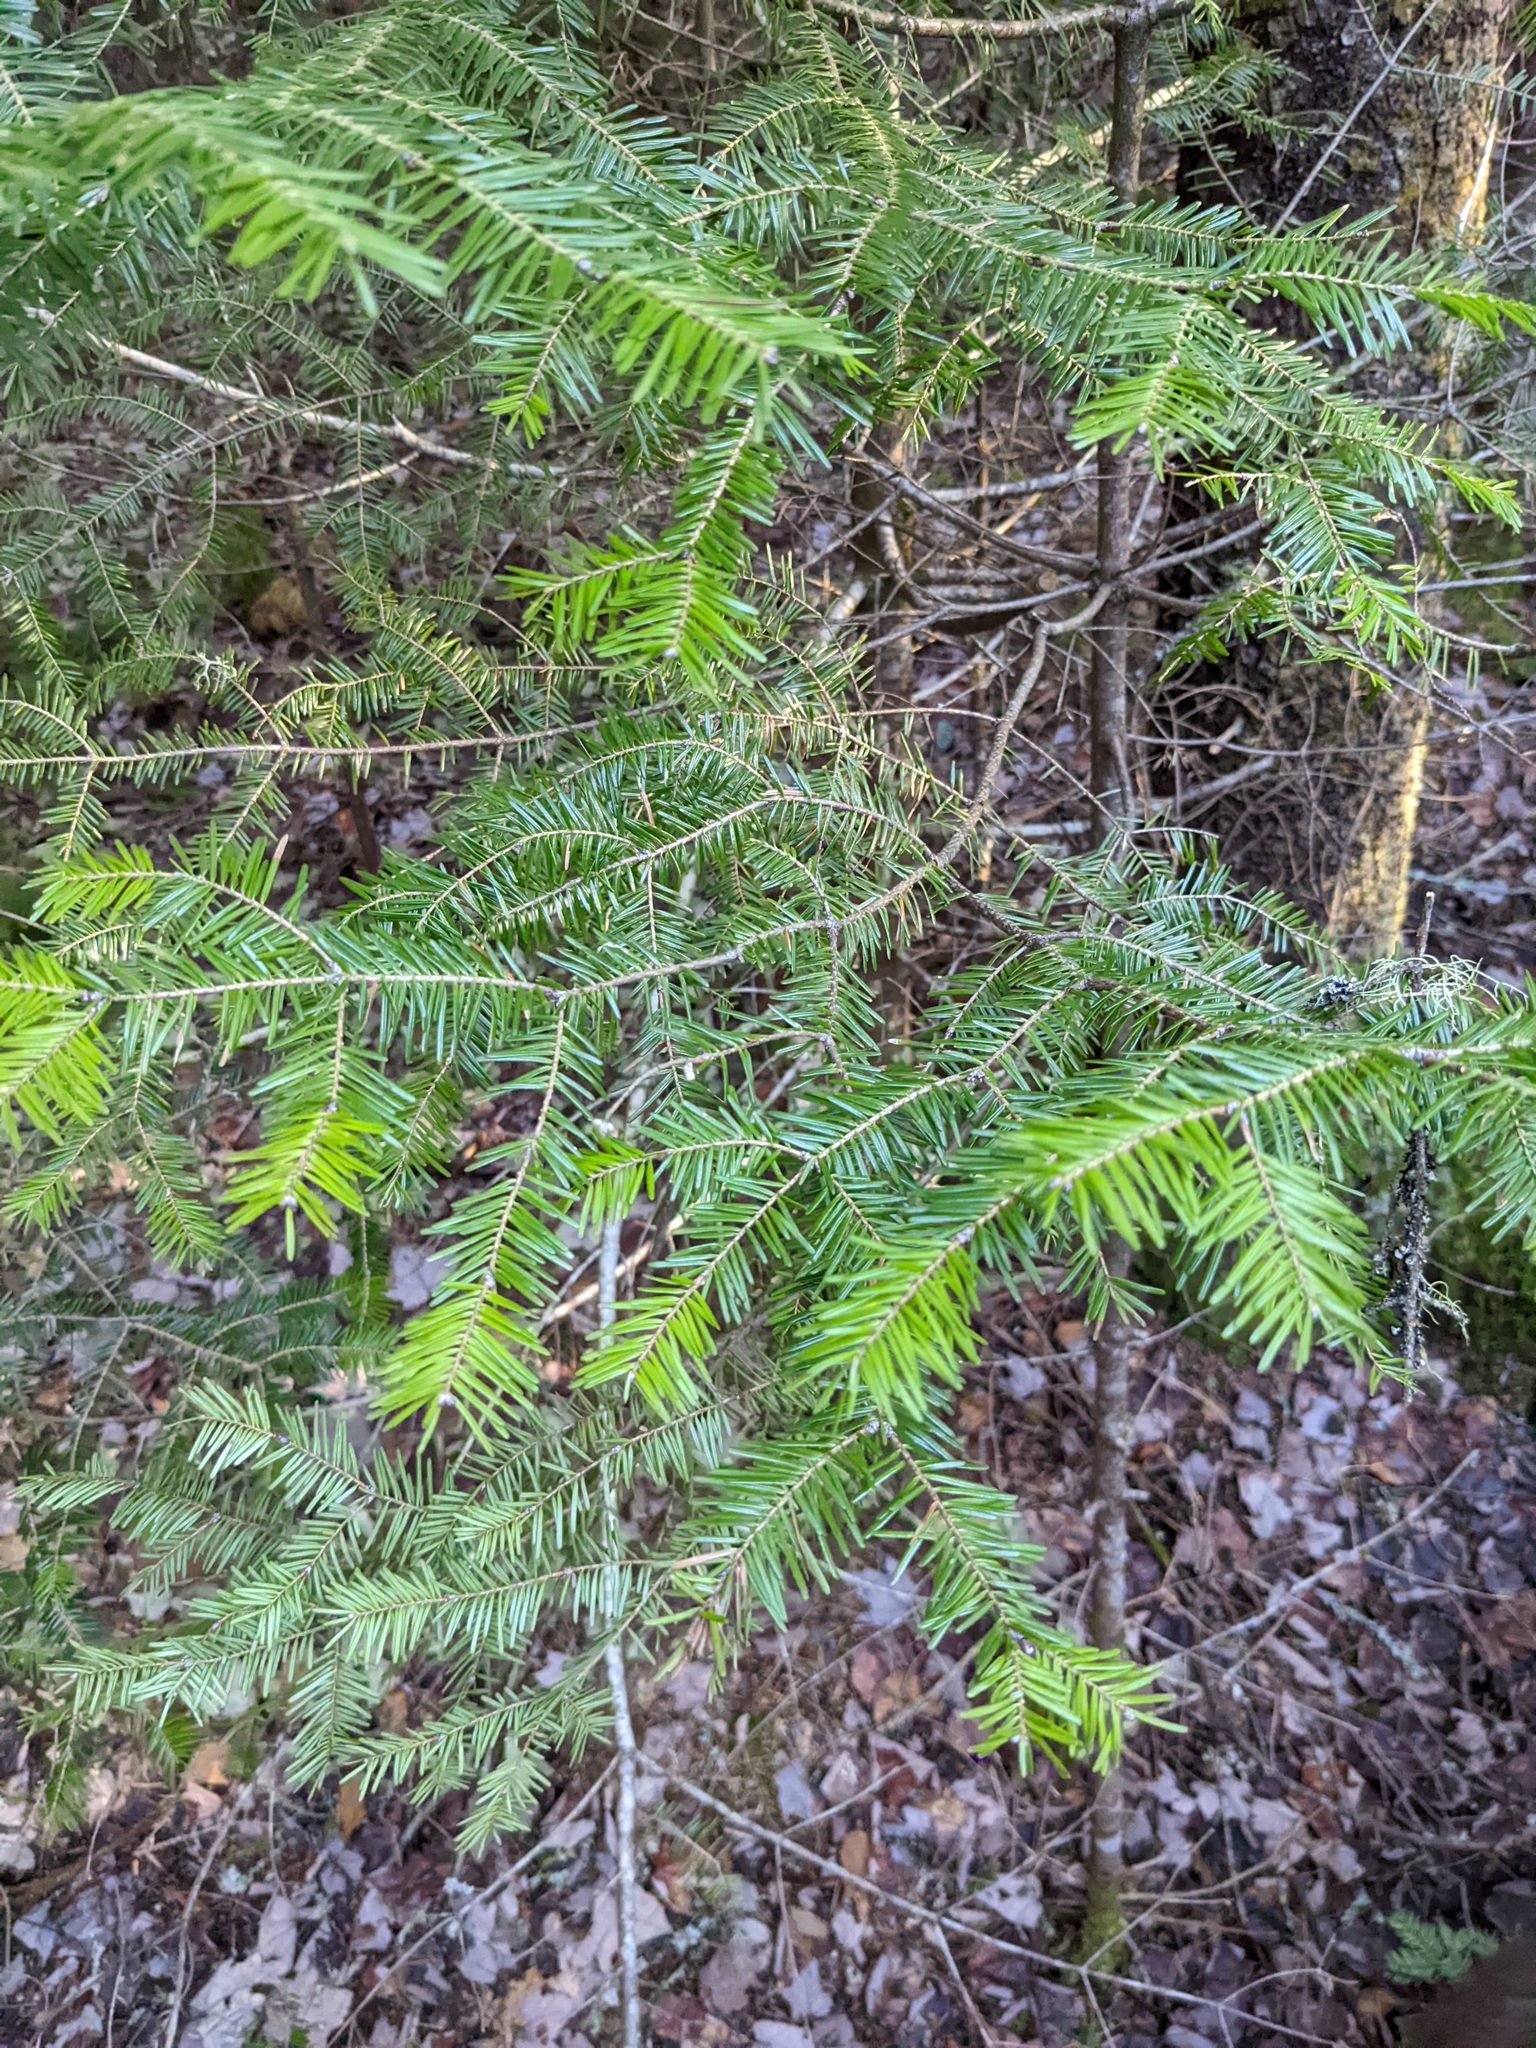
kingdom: Plantae
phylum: Tracheophyta
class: Pinopsida
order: Pinales
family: Pinaceae
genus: Abies
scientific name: Abies balsamea
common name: Balsam fir
